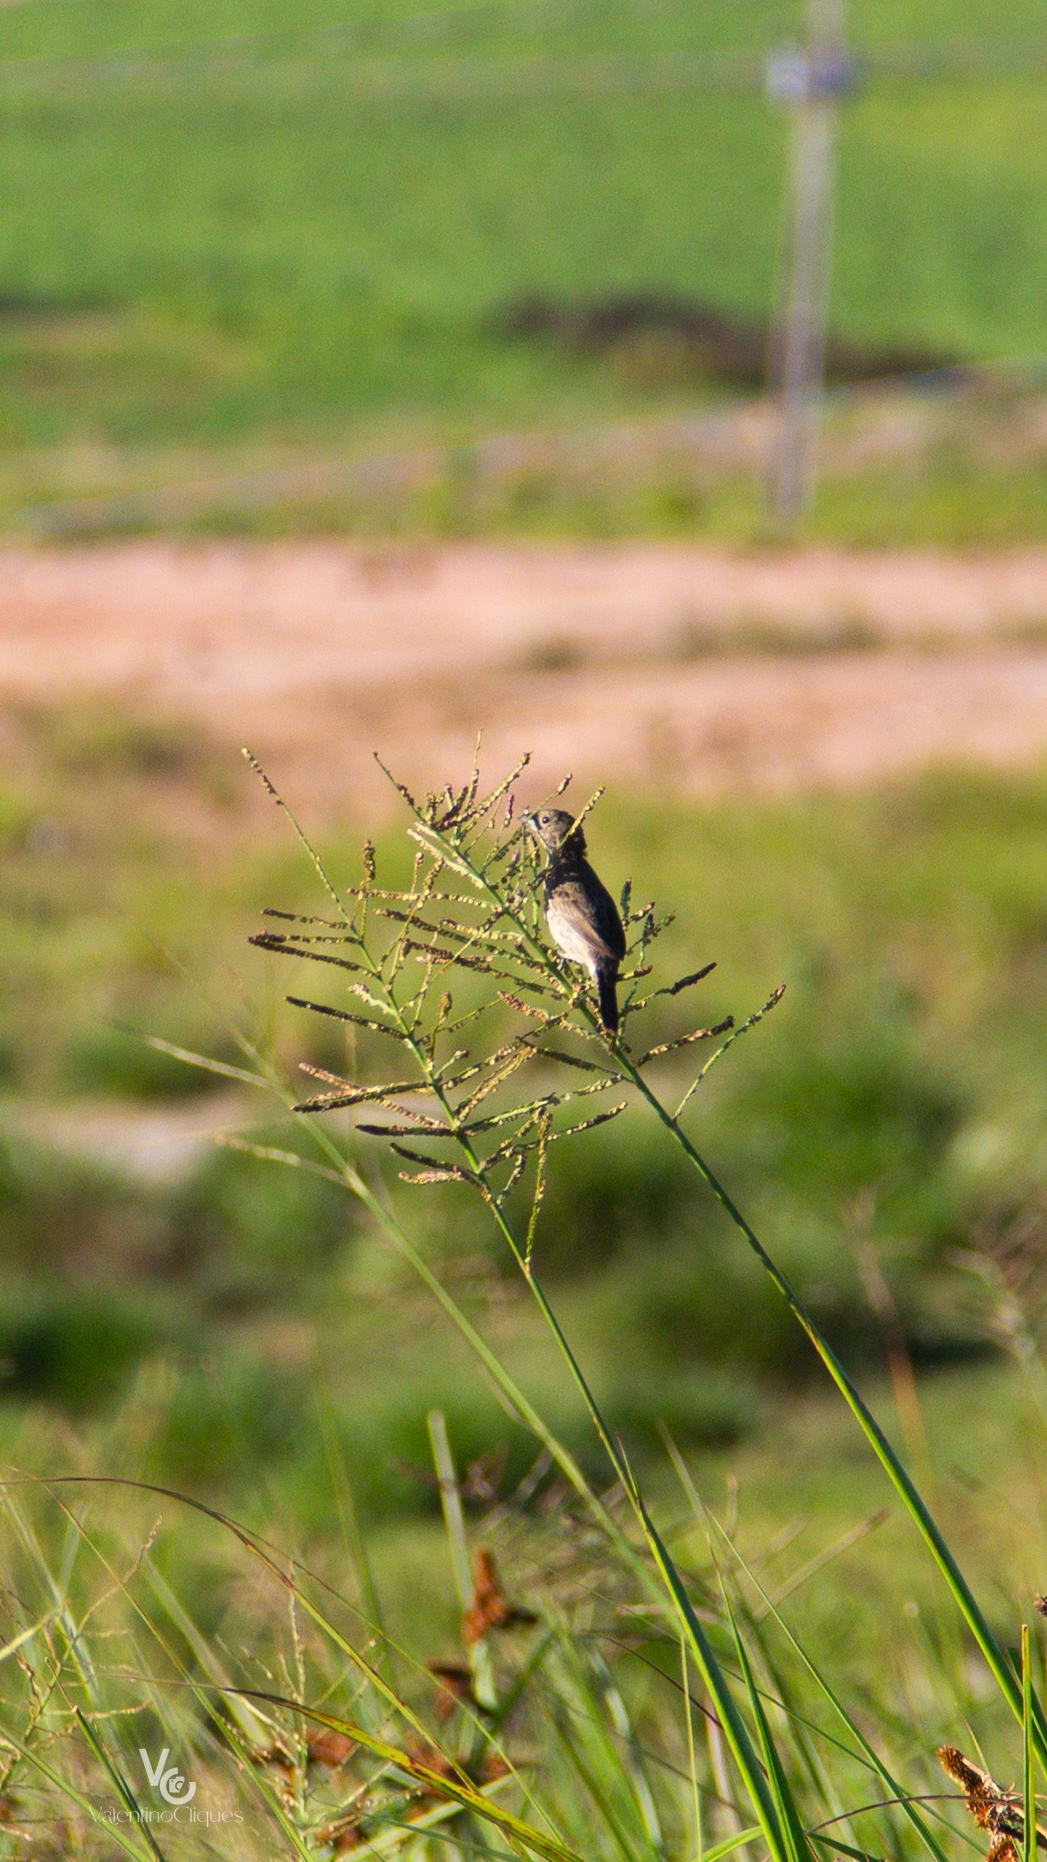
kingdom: Animalia
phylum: Chordata
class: Aves
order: Passeriformes
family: Thraupidae
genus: Volatinia
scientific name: Volatinia jacarina
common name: Blue-black grassquit
